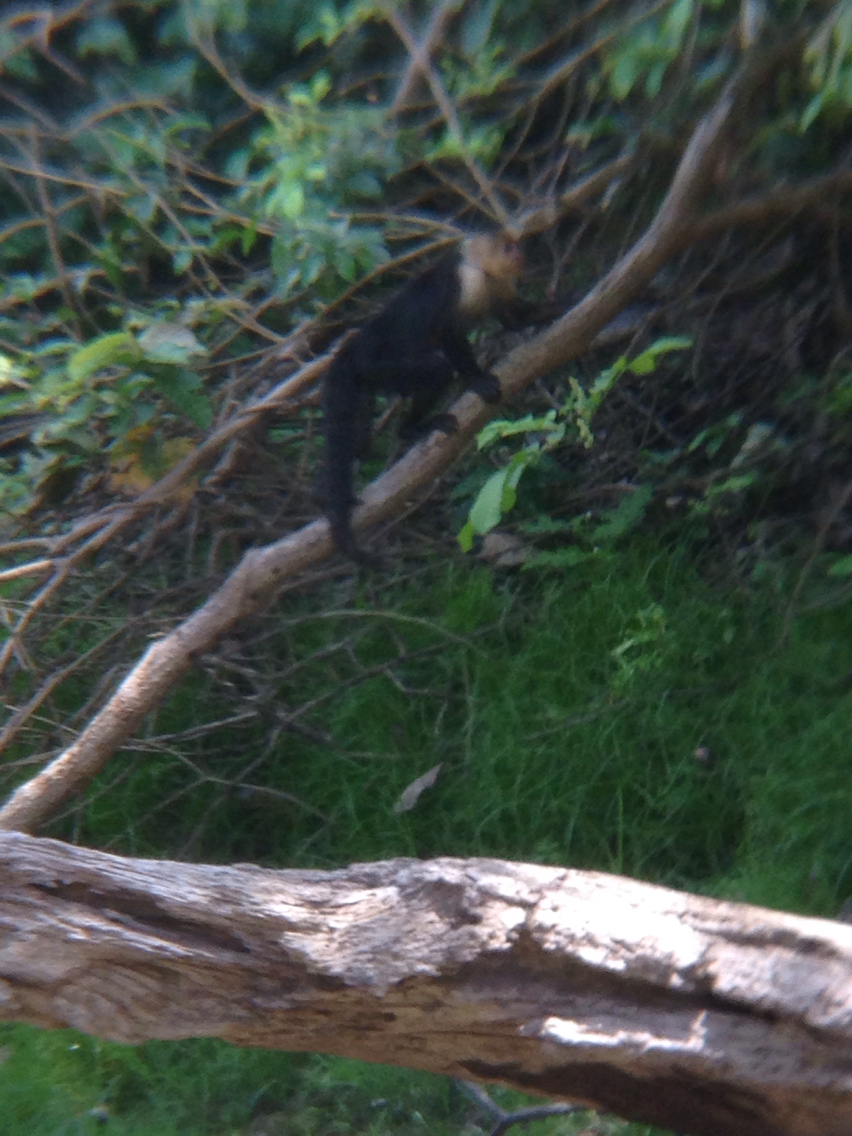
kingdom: Animalia
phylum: Chordata
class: Mammalia
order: Primates
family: Cebidae
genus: Cebus
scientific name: Cebus imitator
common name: Panamanian white-faced capuchin
